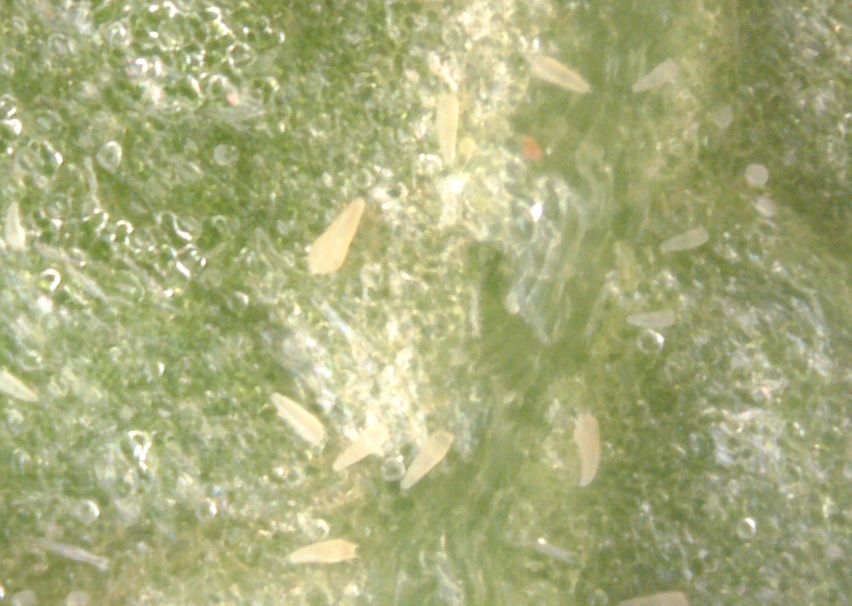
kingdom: Animalia
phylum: Arthropoda
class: Arachnida
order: Trombidiformes
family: Diptilomiopidae
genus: Rhyncaphytoptus
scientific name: Rhyncaphytoptus
